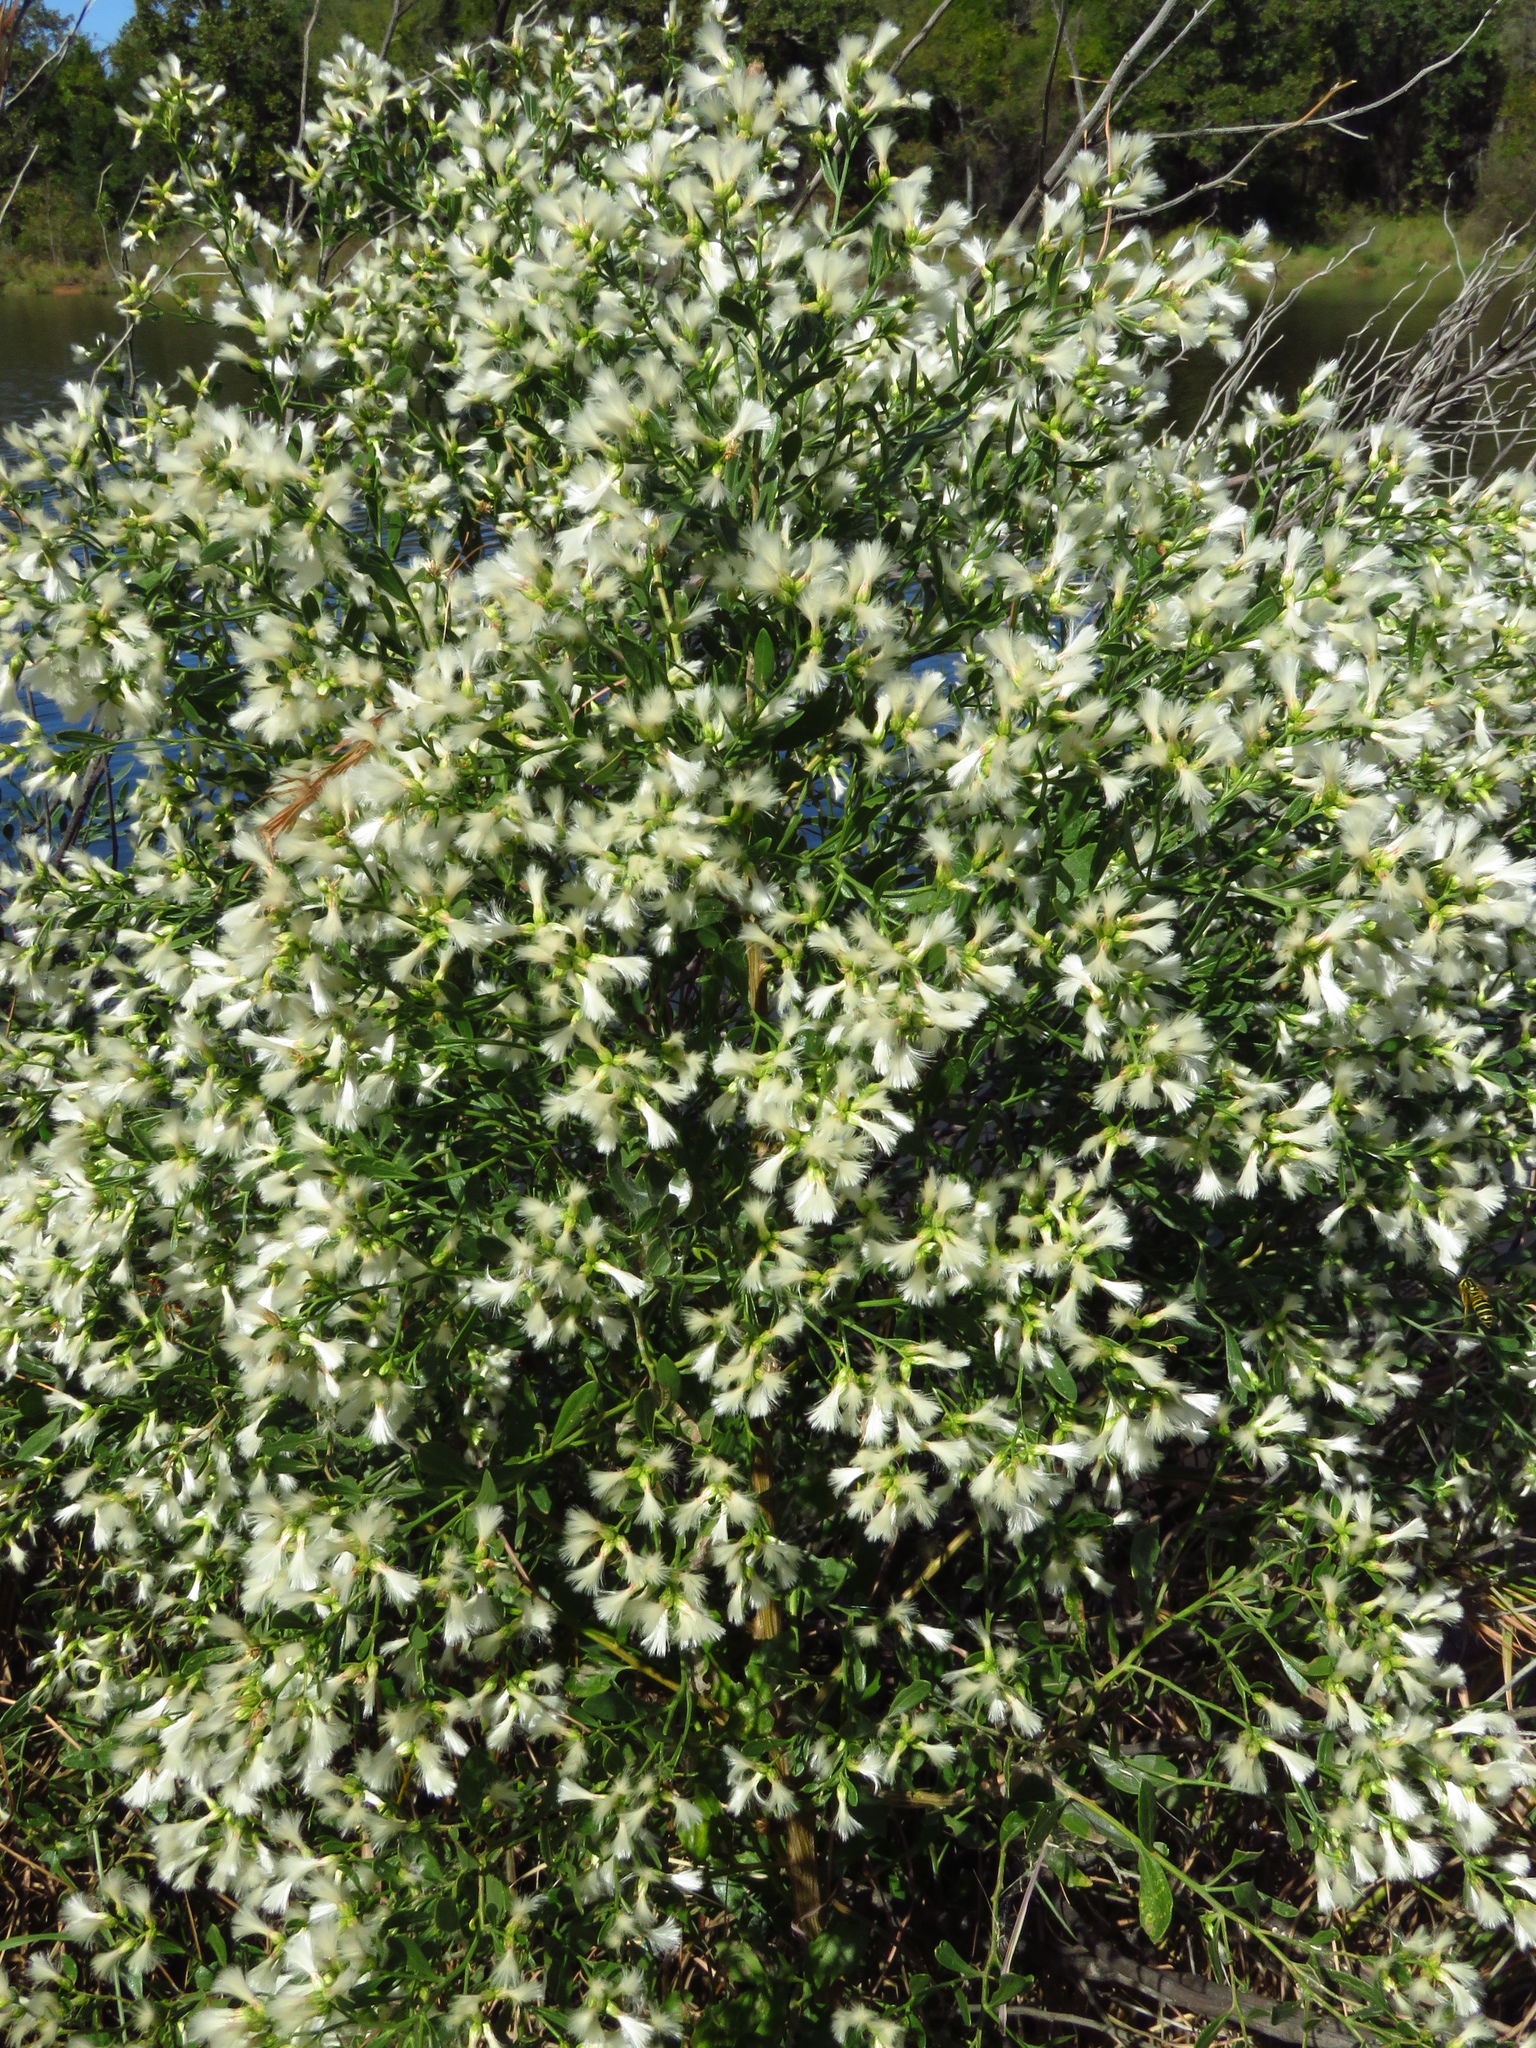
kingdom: Plantae
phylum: Tracheophyta
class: Magnoliopsida
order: Asterales
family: Asteraceae
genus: Baccharis
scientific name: Baccharis neglecta
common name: Roosevelt-weed
